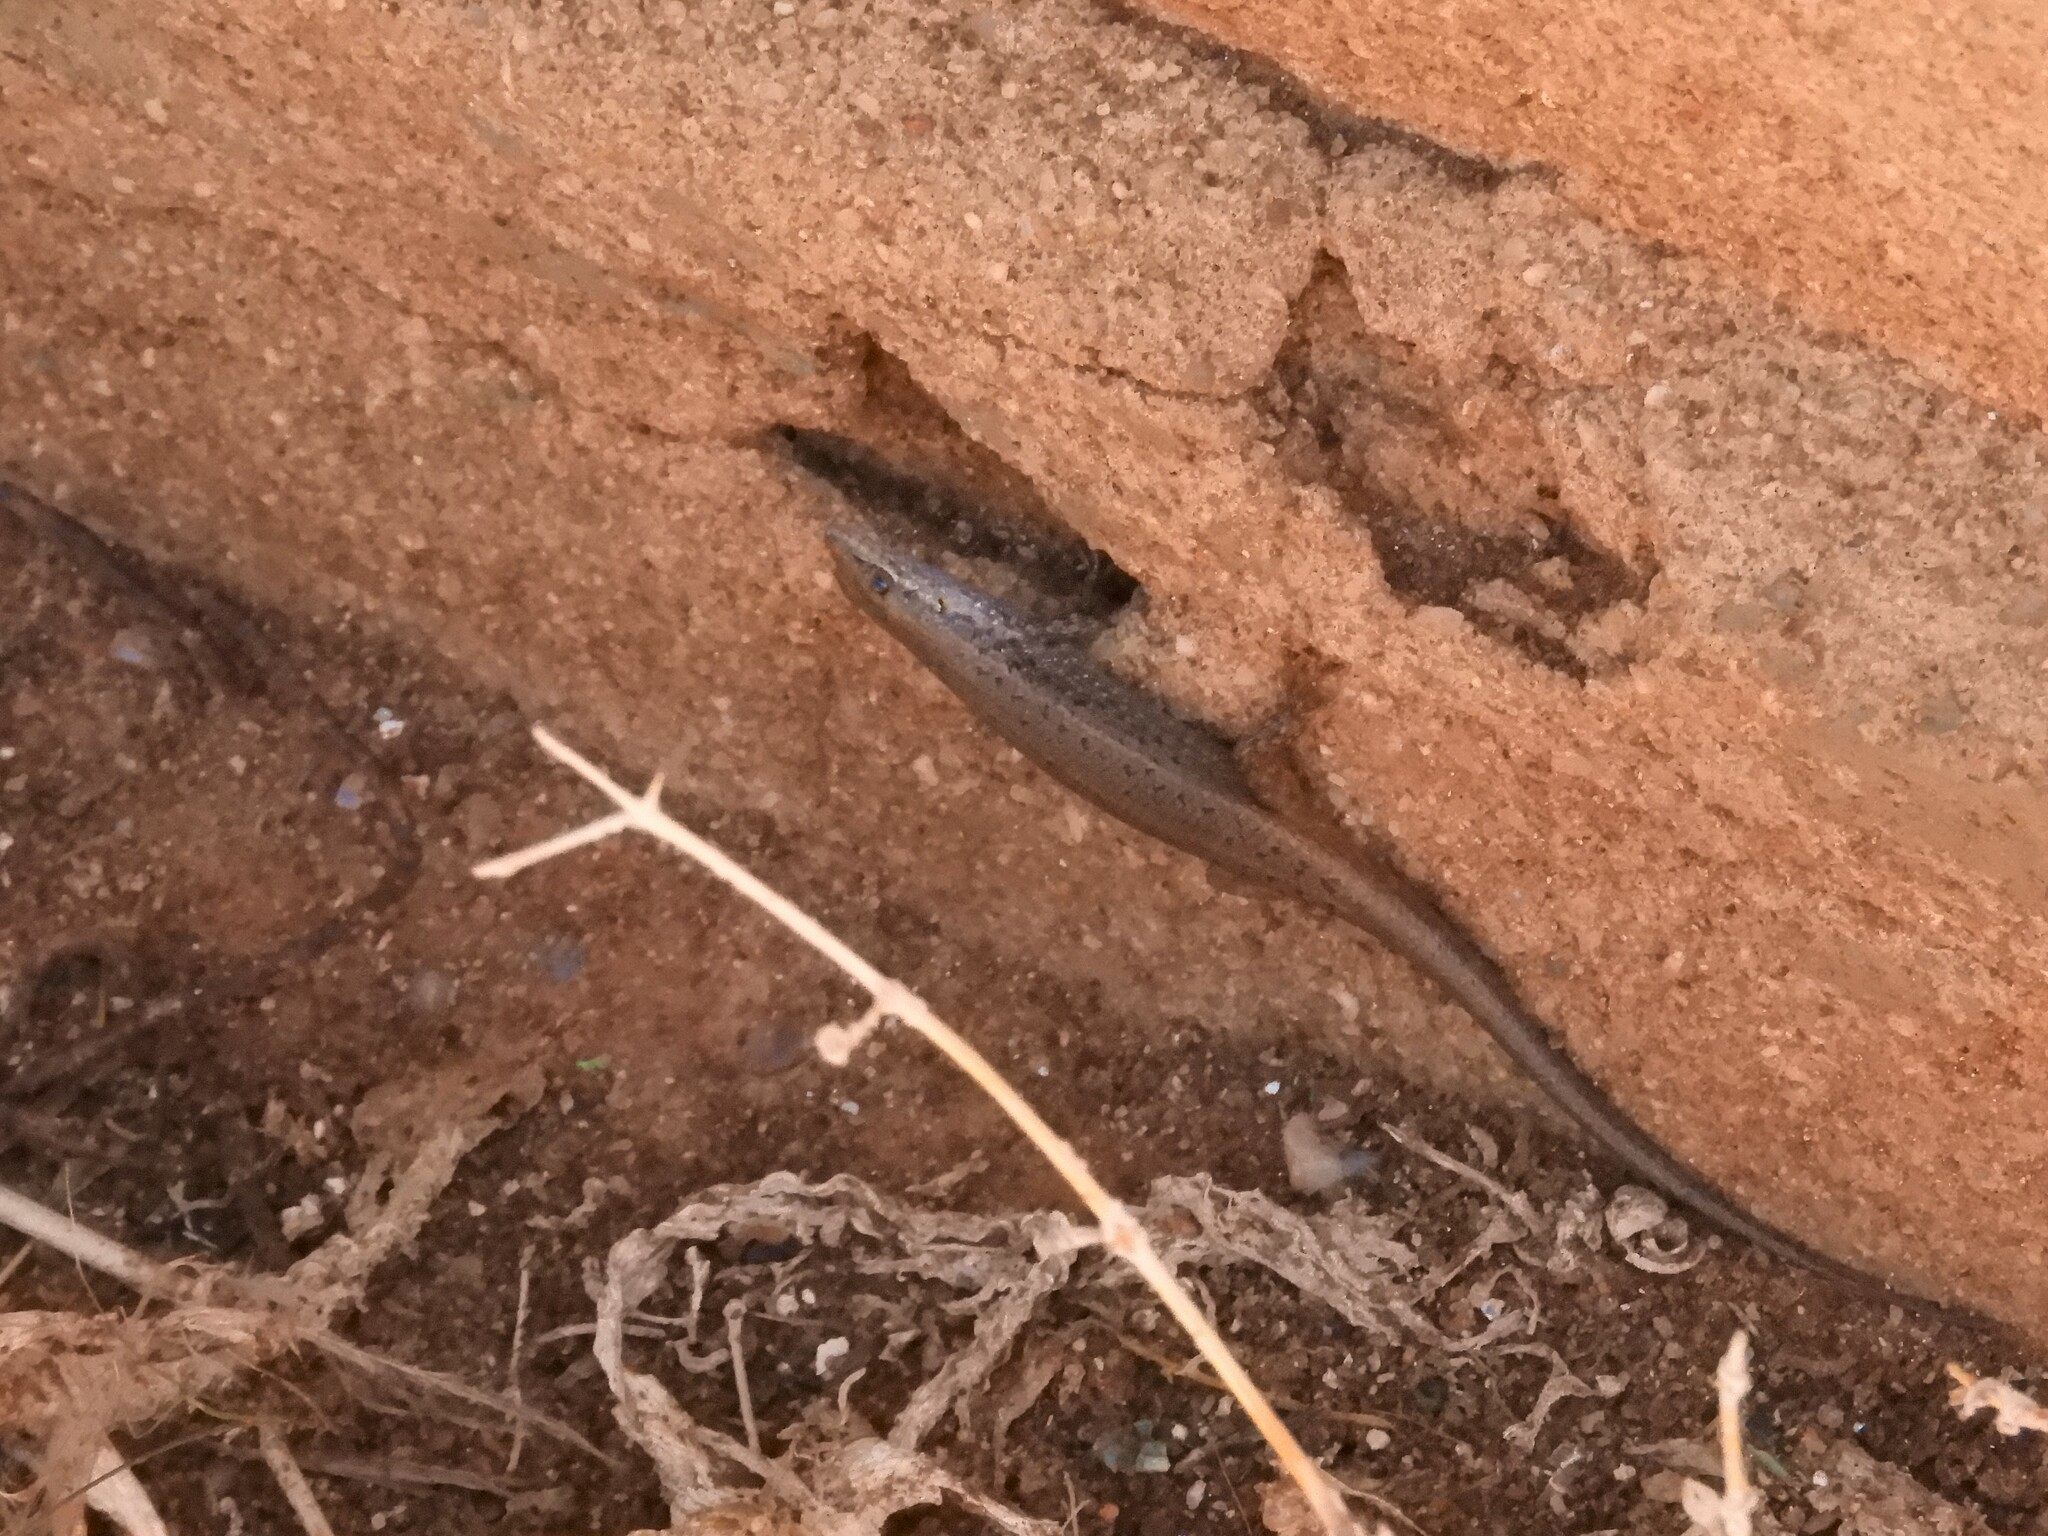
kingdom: Animalia
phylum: Chordata
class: Squamata
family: Scincidae
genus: Trachylepis
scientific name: Trachylepis variegata
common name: Variegated skink
